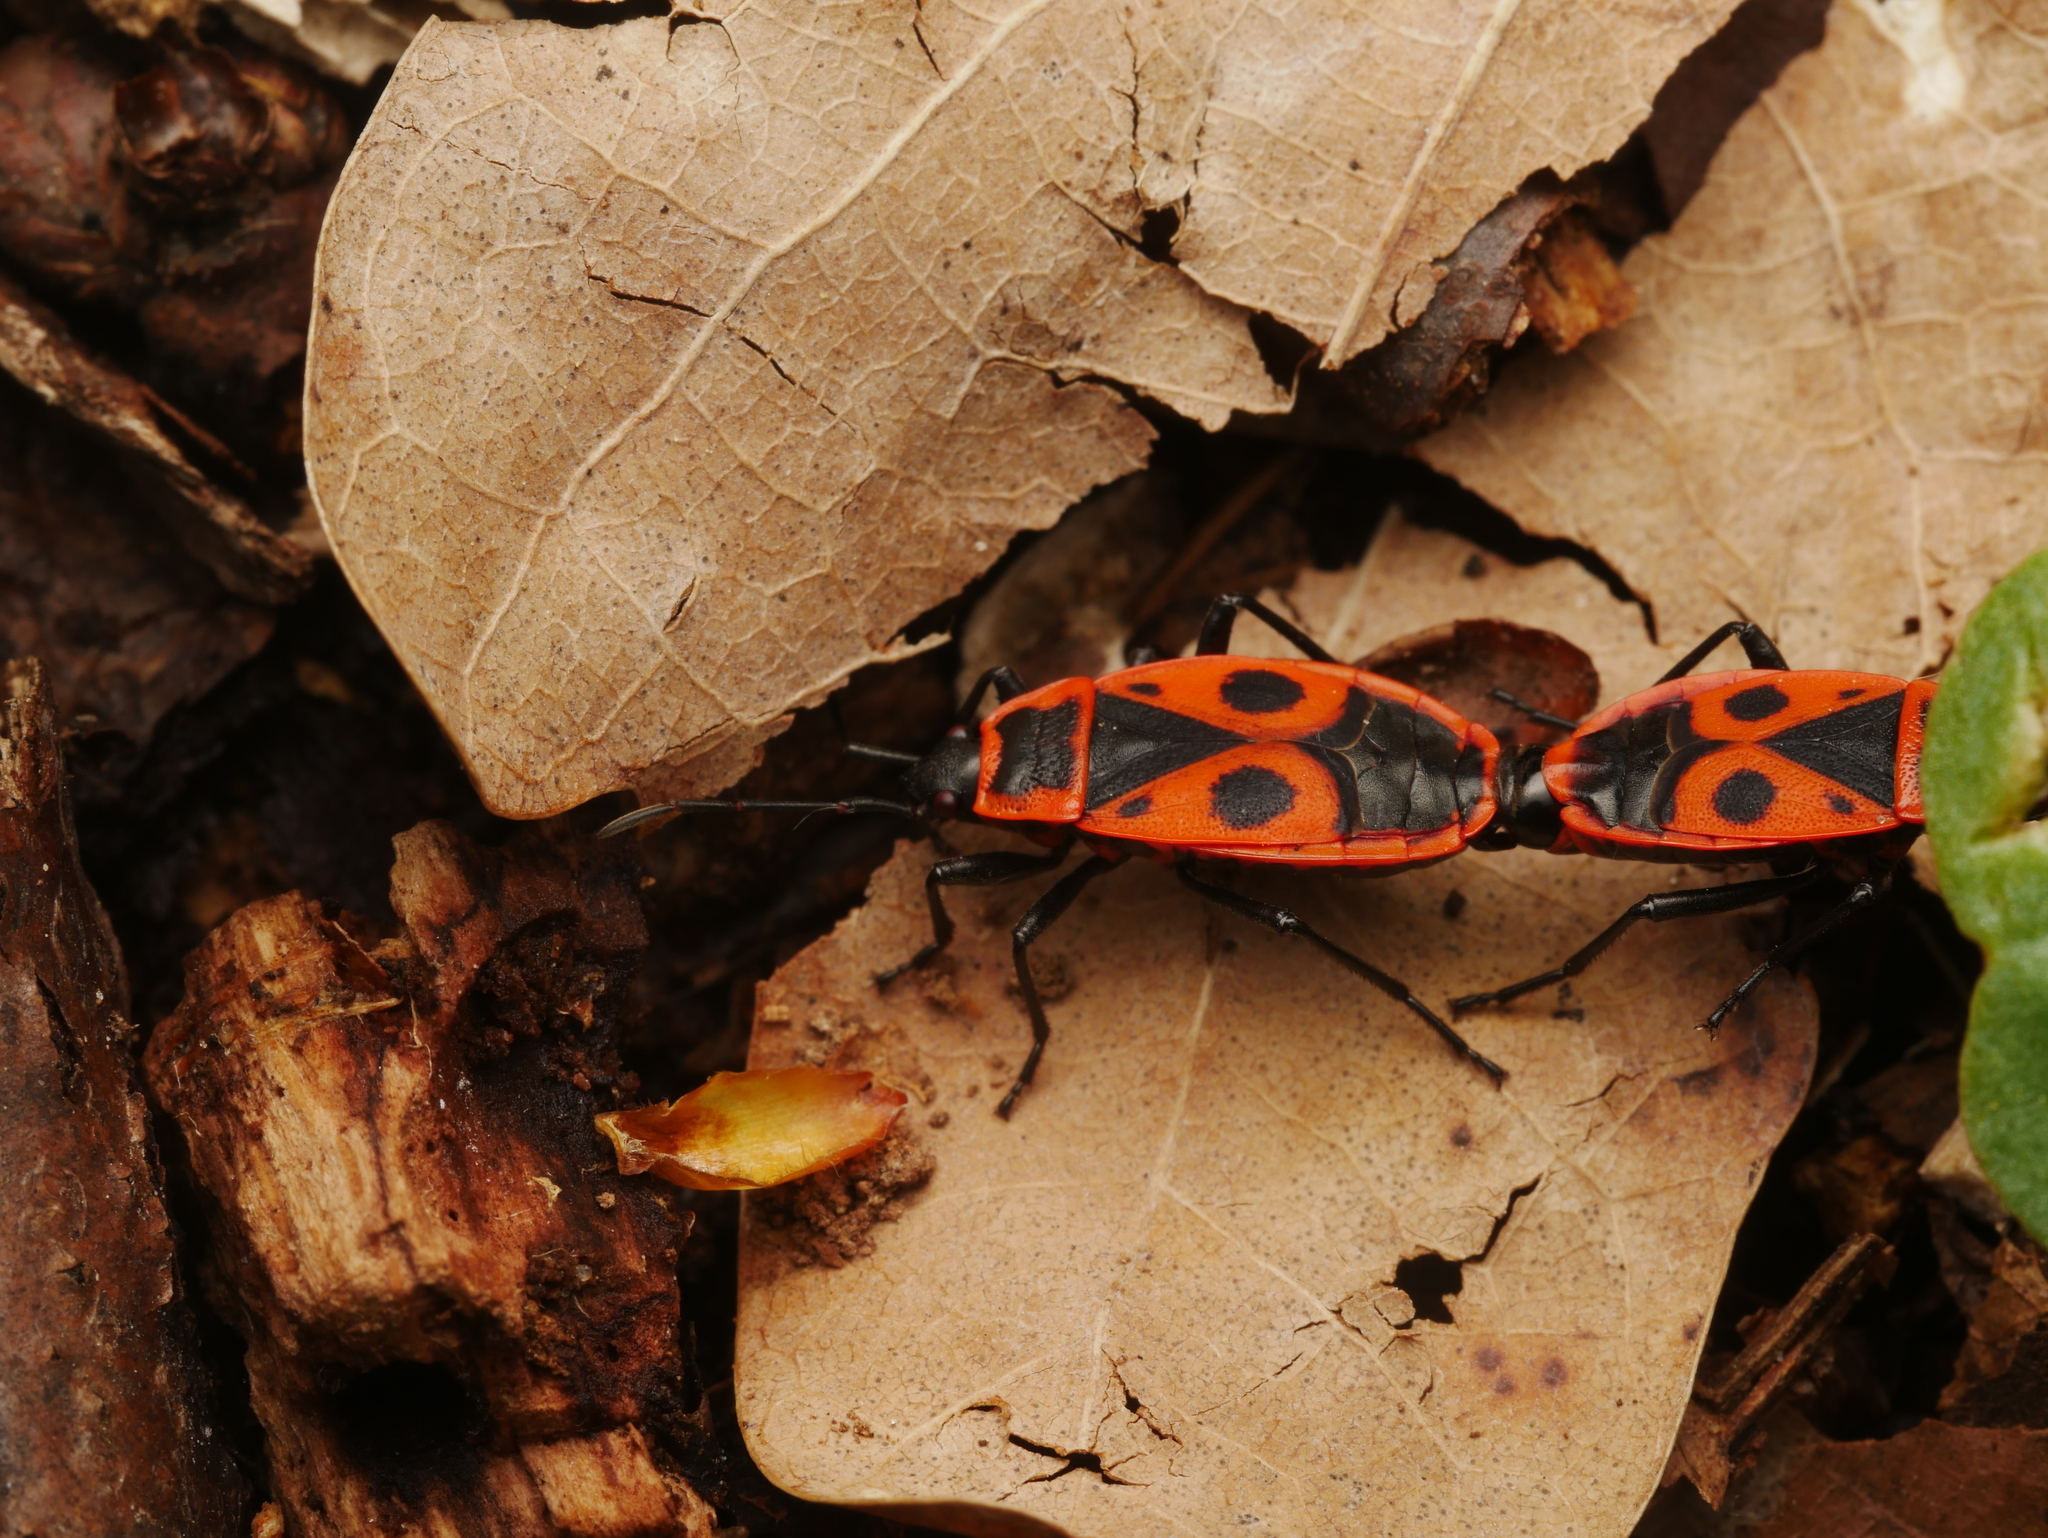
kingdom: Animalia
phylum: Arthropoda
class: Insecta
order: Hemiptera
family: Pyrrhocoridae
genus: Pyrrhocoris
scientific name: Pyrrhocoris apterus
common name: Firebug
